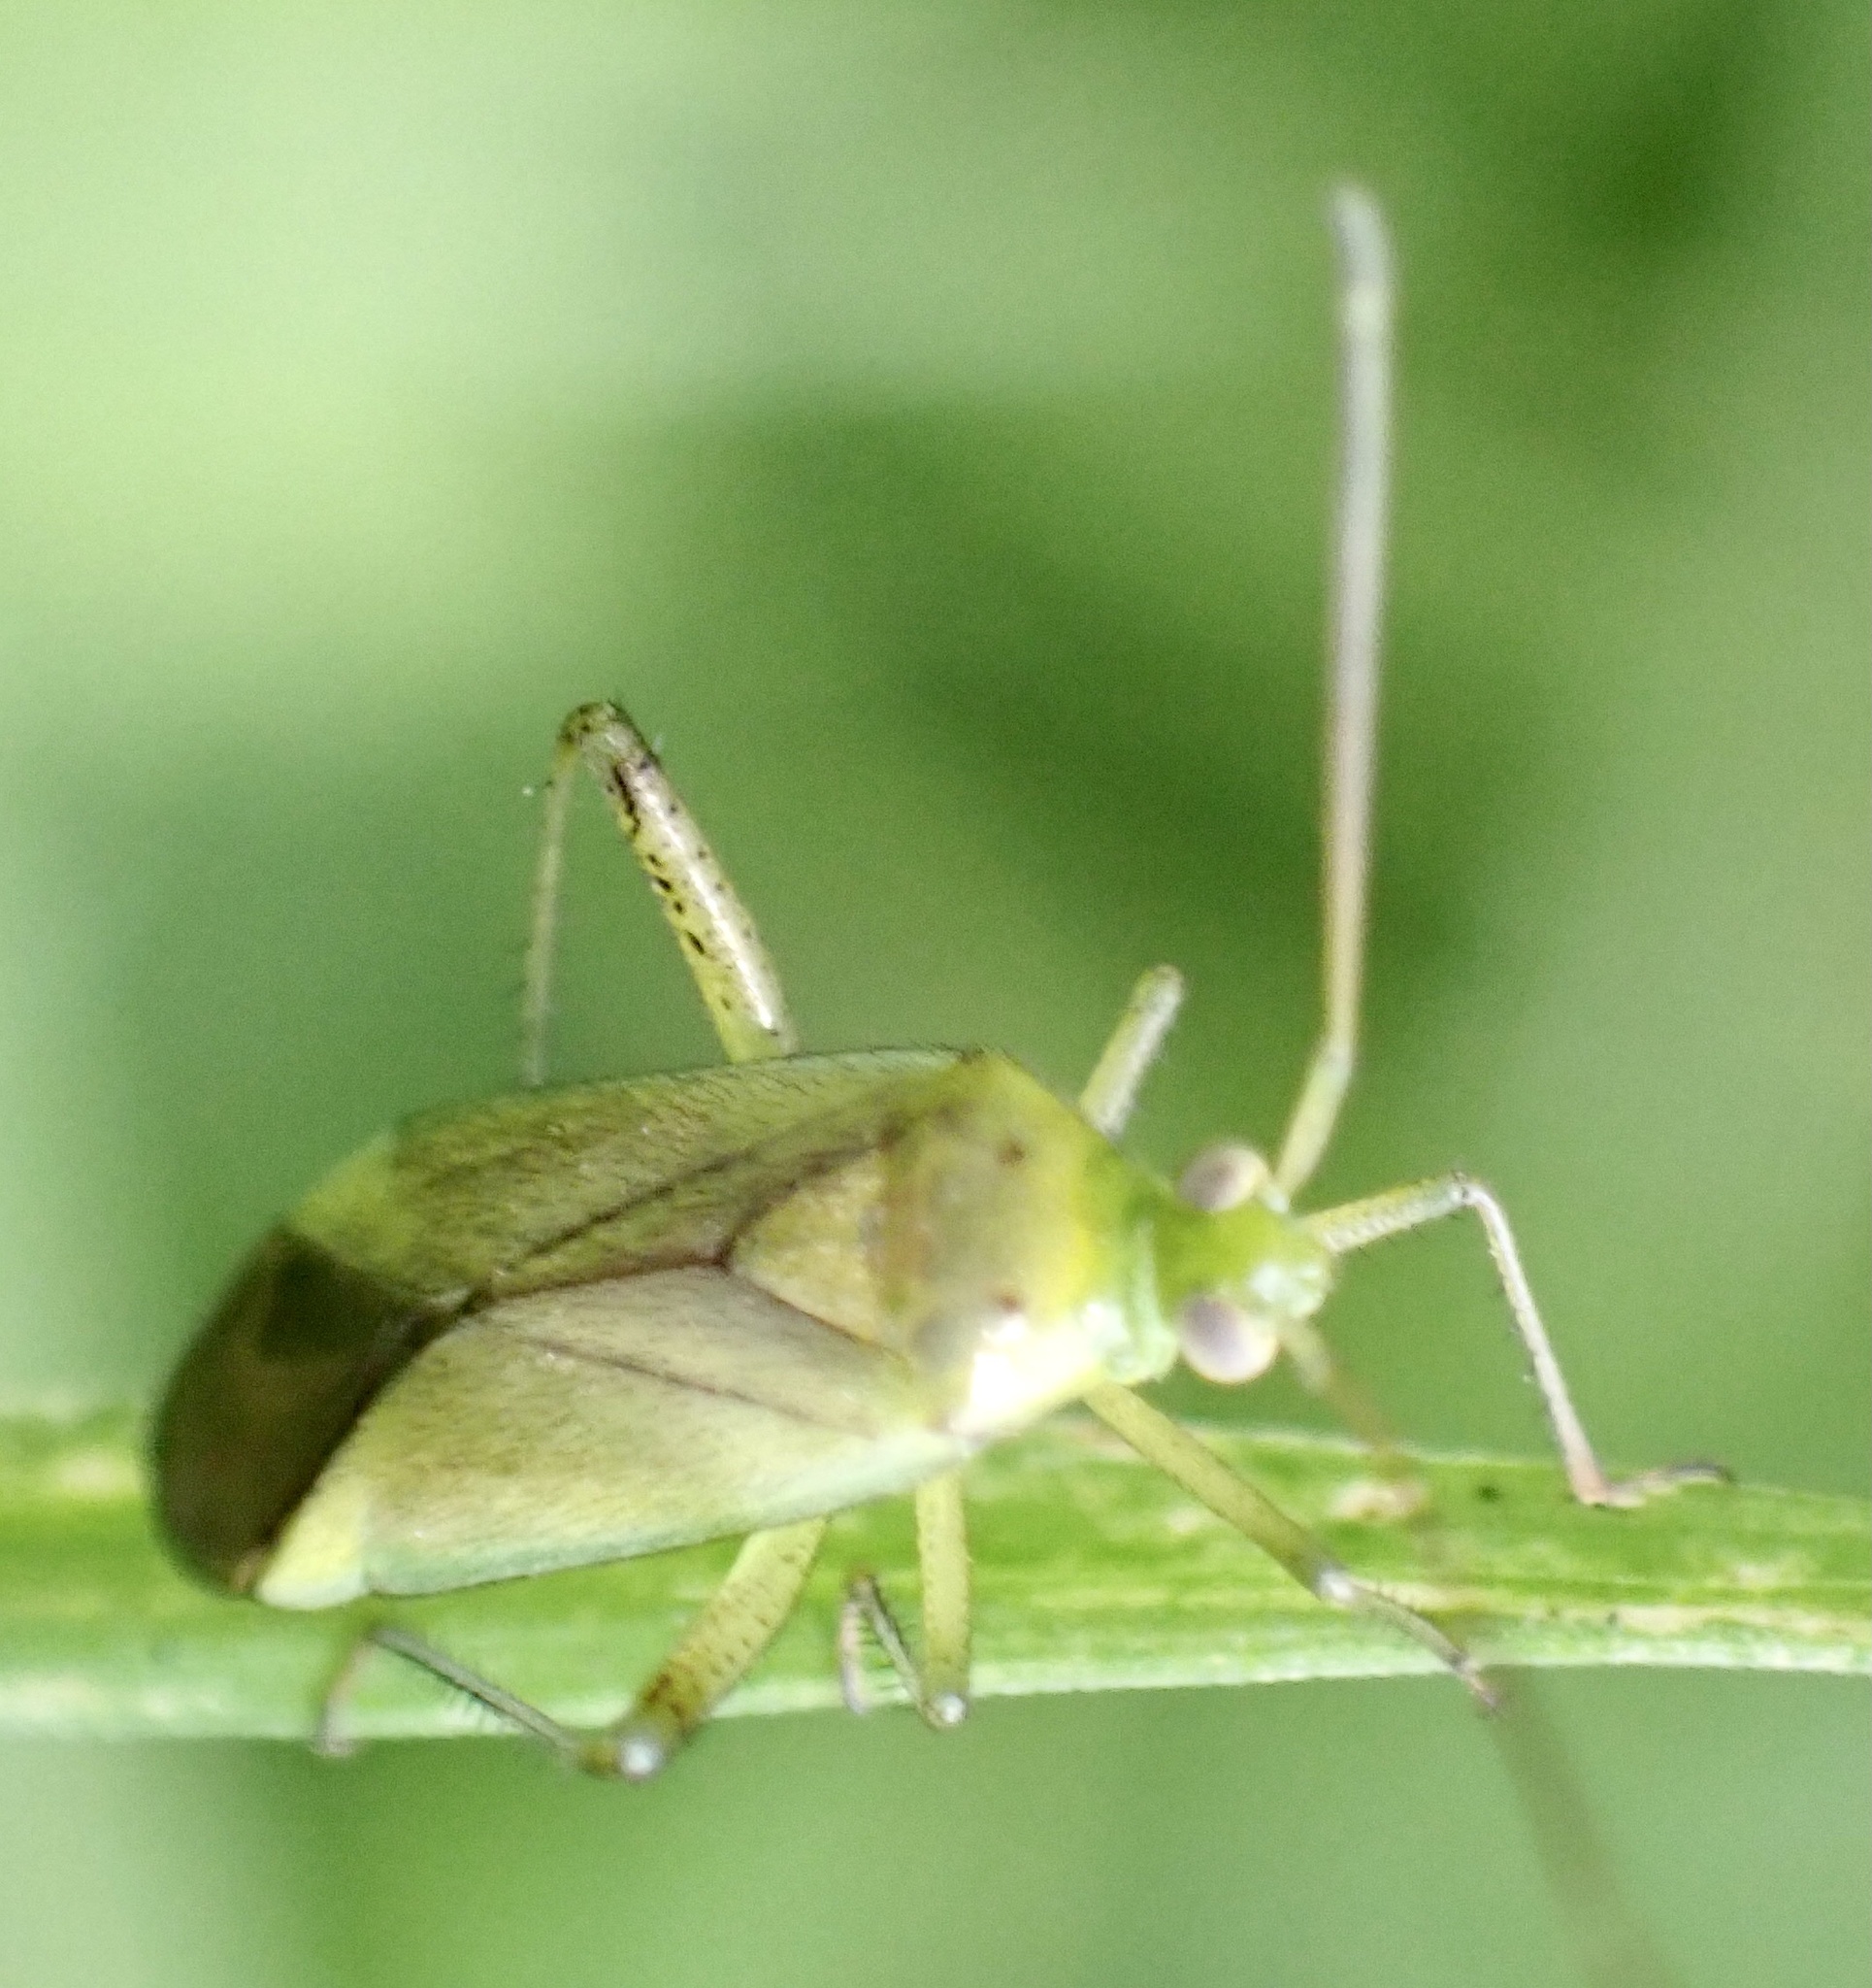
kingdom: Animalia
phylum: Arthropoda
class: Insecta
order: Hemiptera
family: Miridae
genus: Adelphocoris
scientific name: Adelphocoris quadripunctatus
